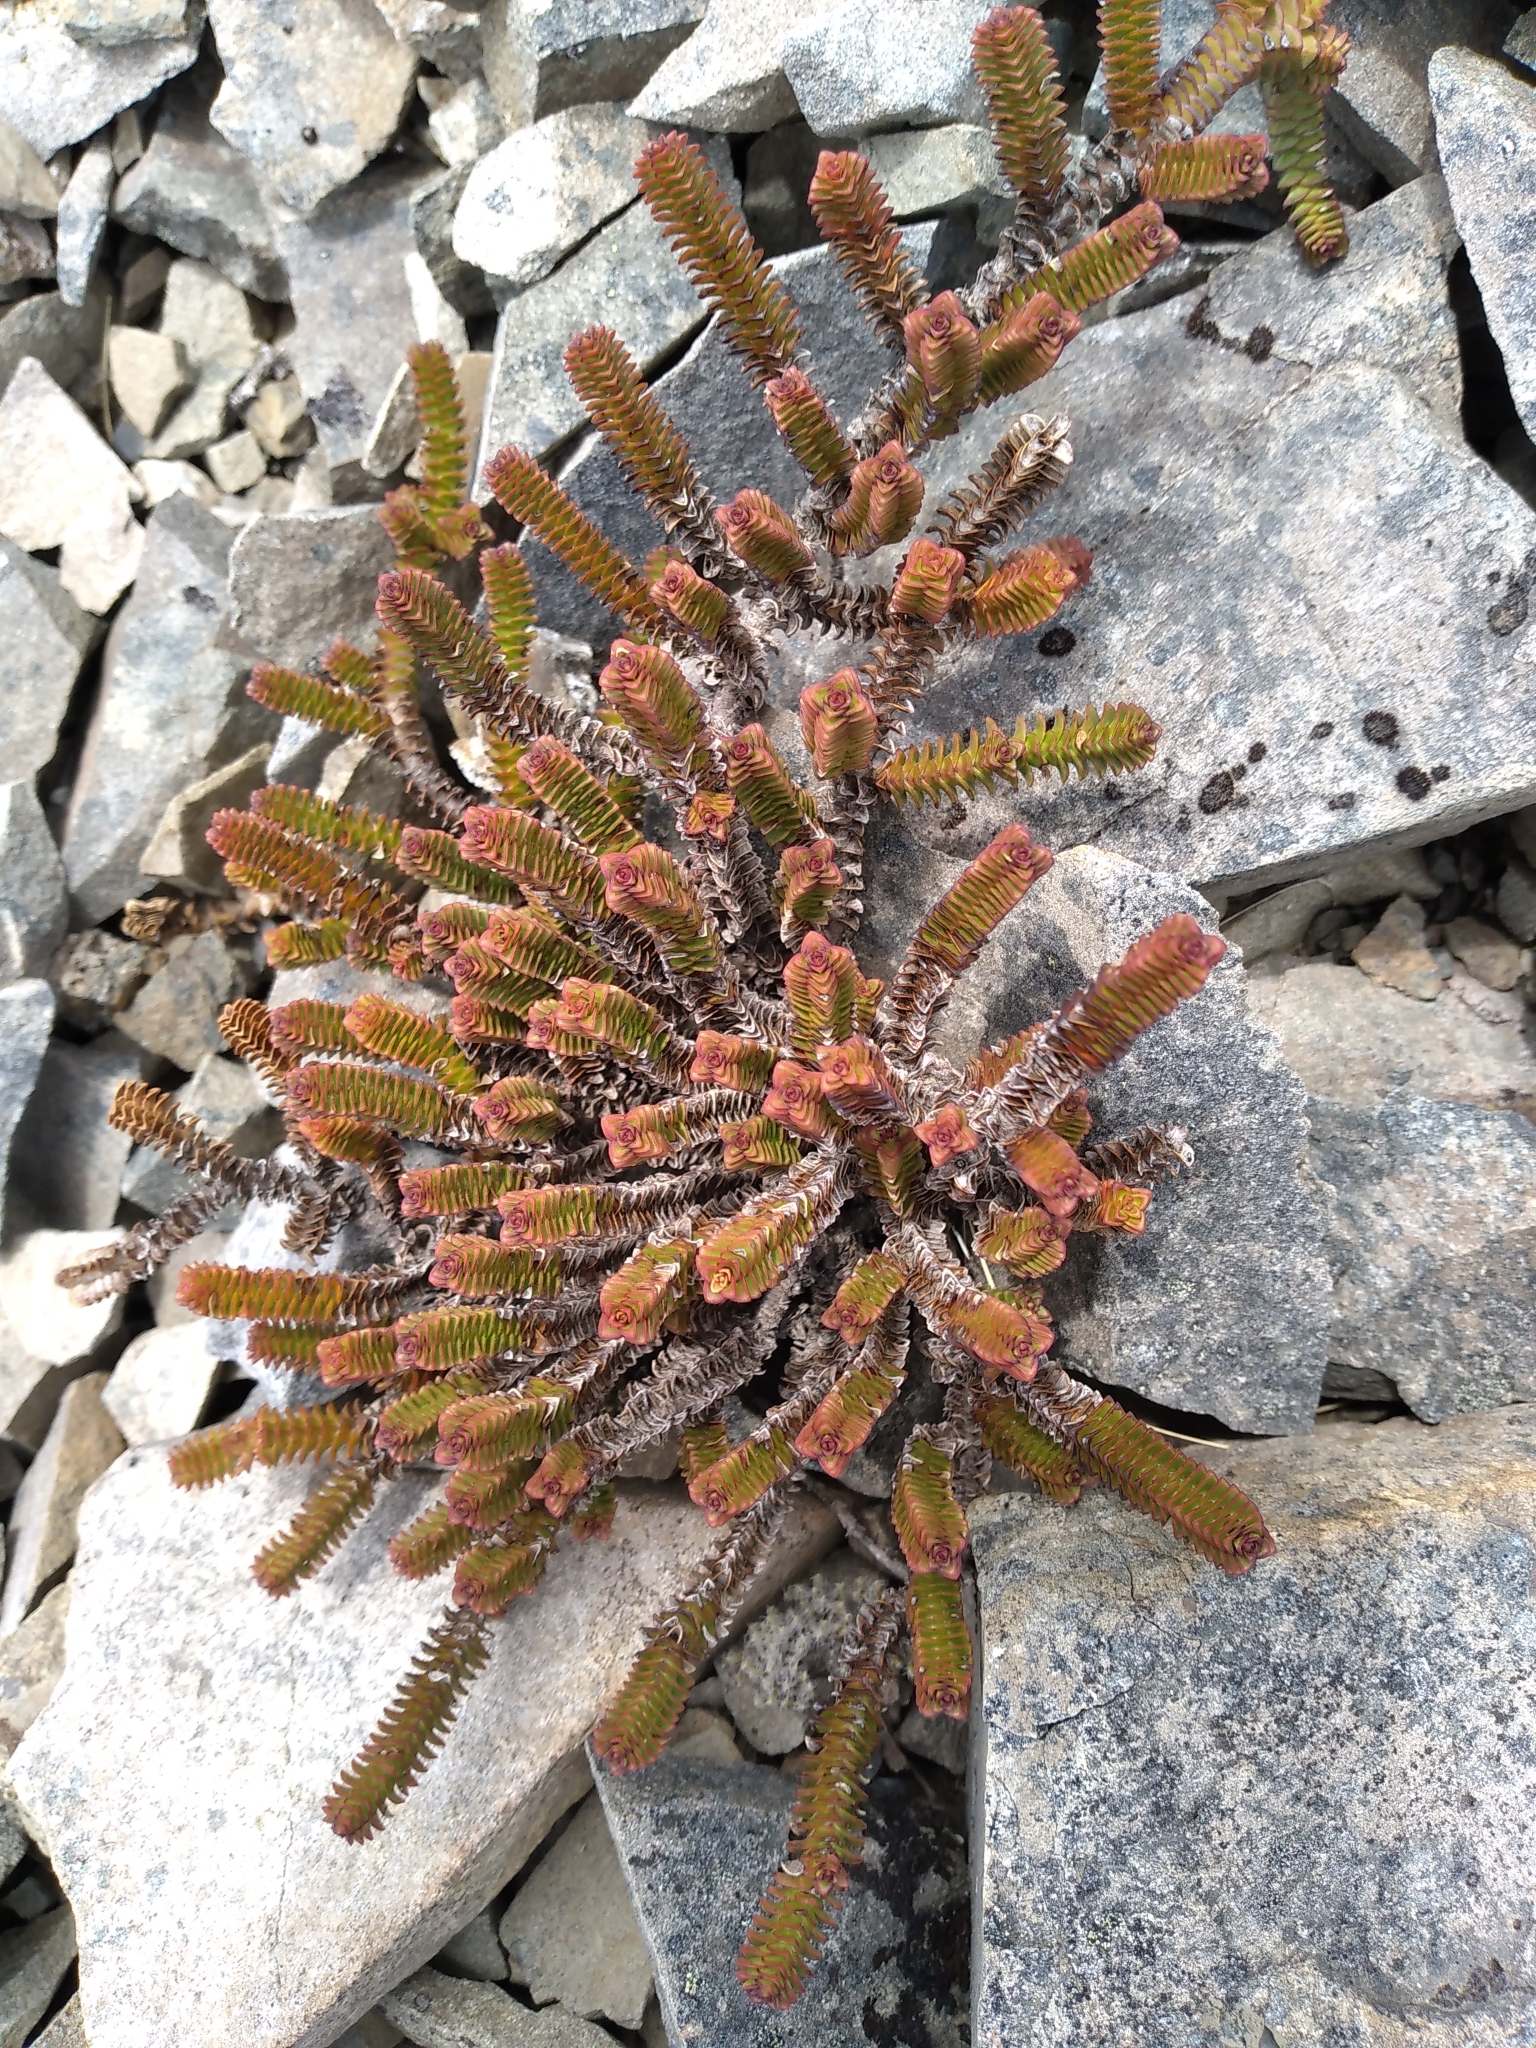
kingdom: Plantae
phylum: Tracheophyta
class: Magnoliopsida
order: Lamiales
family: Plantaginaceae
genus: Veronica
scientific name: Veronica epacridea
